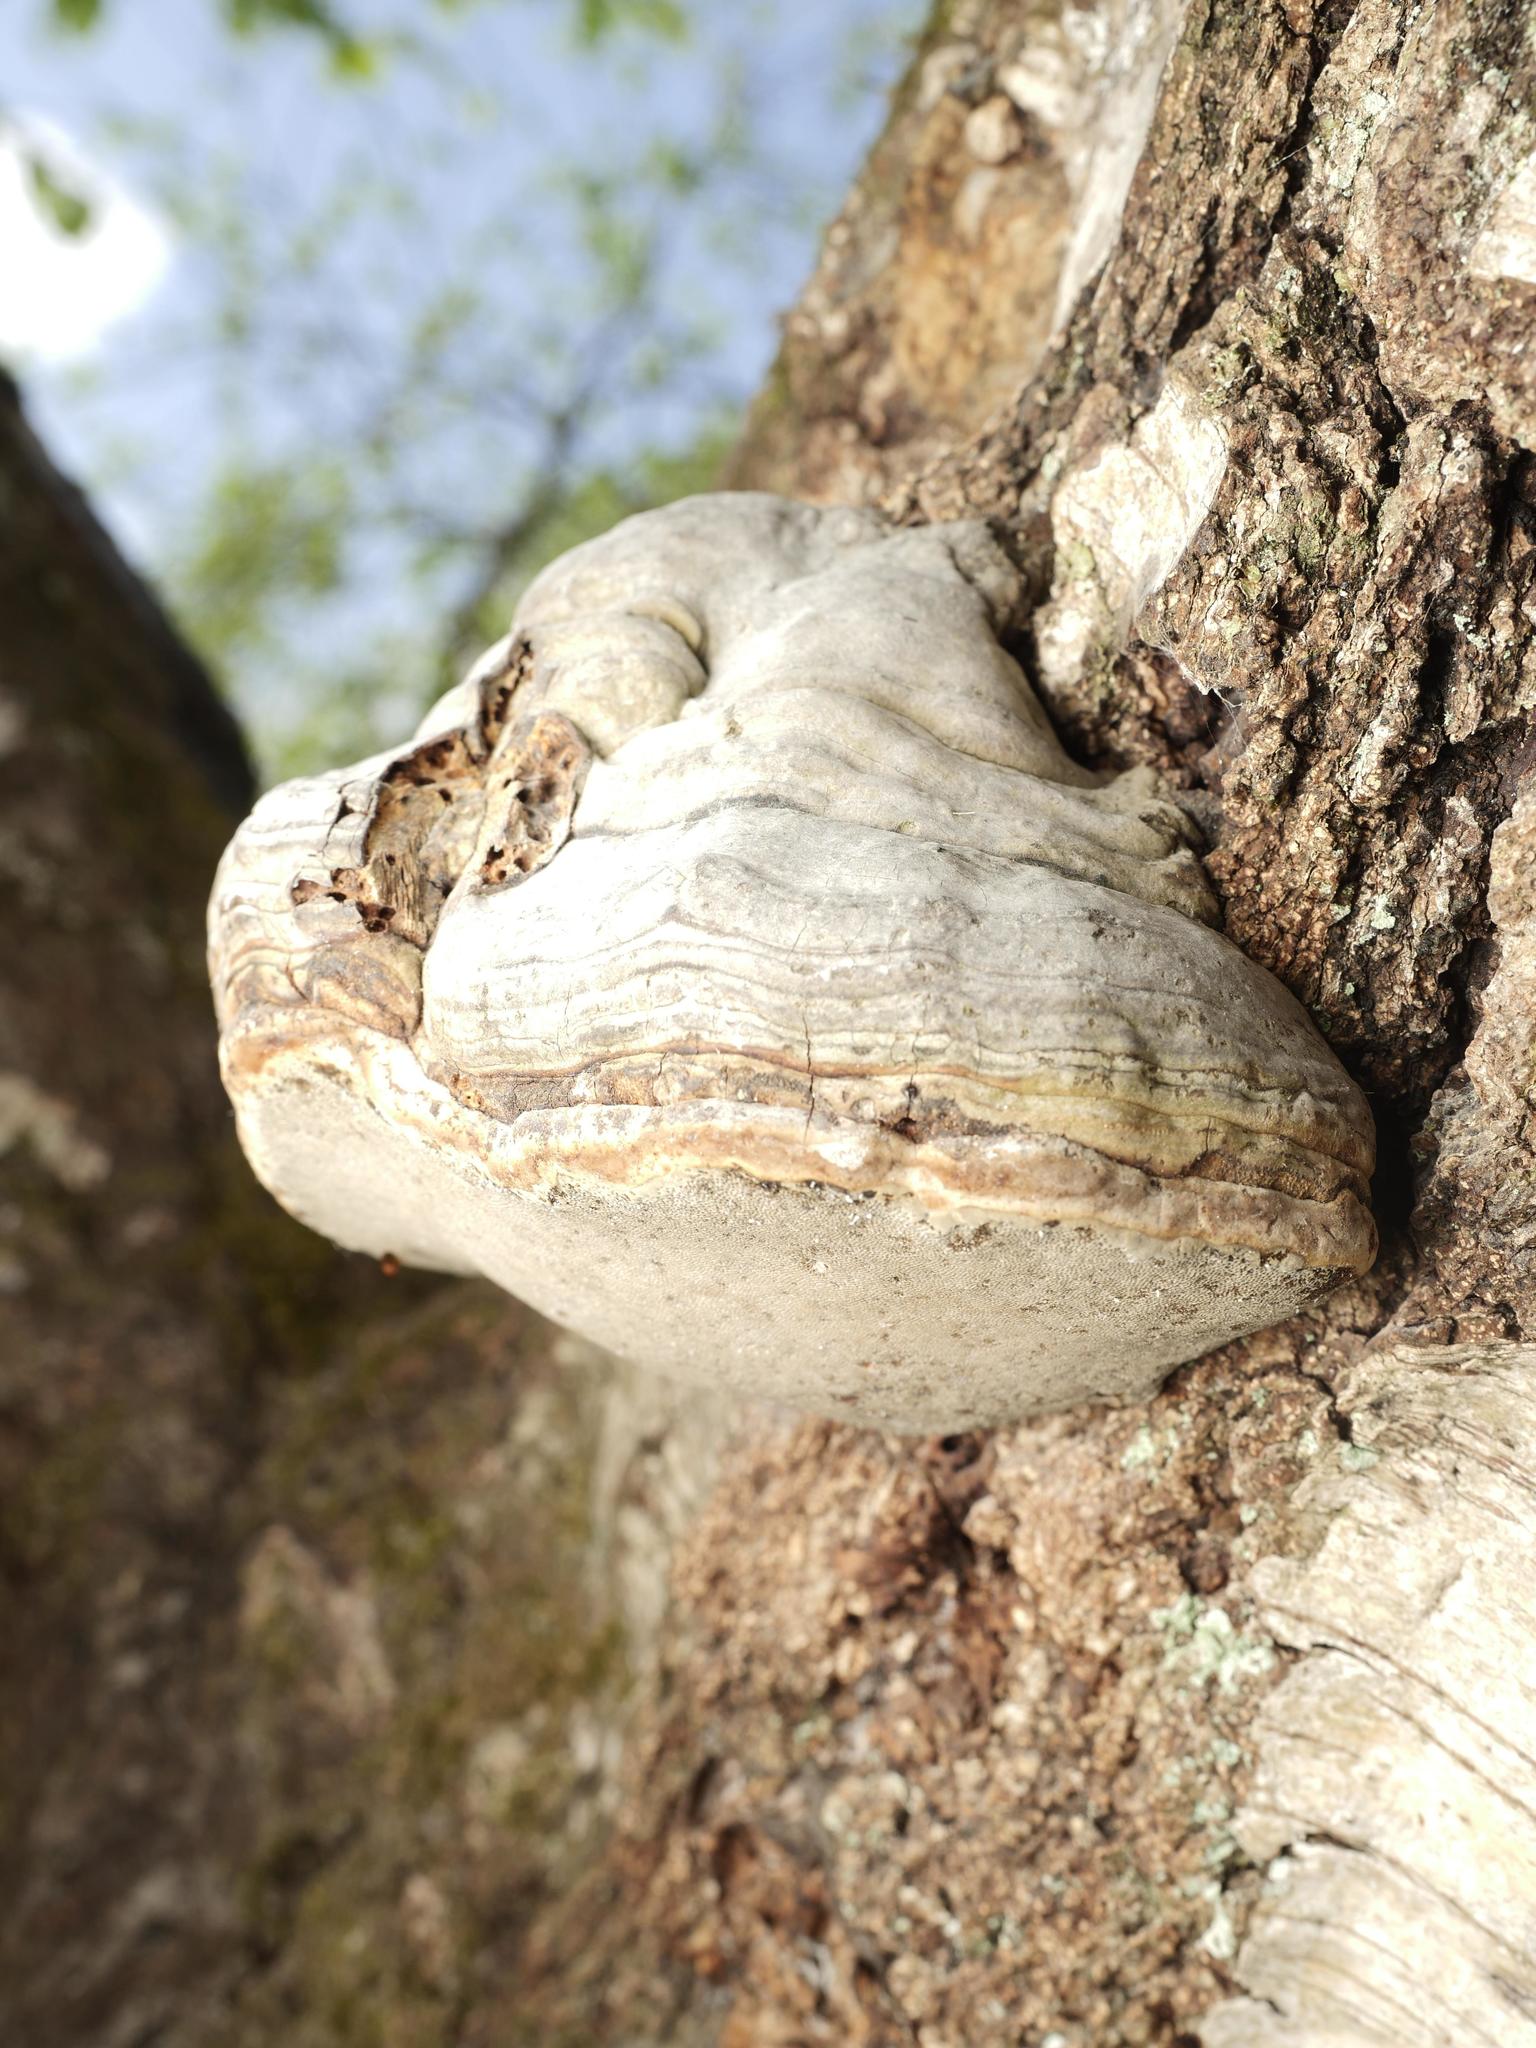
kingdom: Fungi
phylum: Basidiomycota
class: Agaricomycetes
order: Polyporales
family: Polyporaceae
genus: Fomes
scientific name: Fomes fomentarius
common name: Hoof fungus
